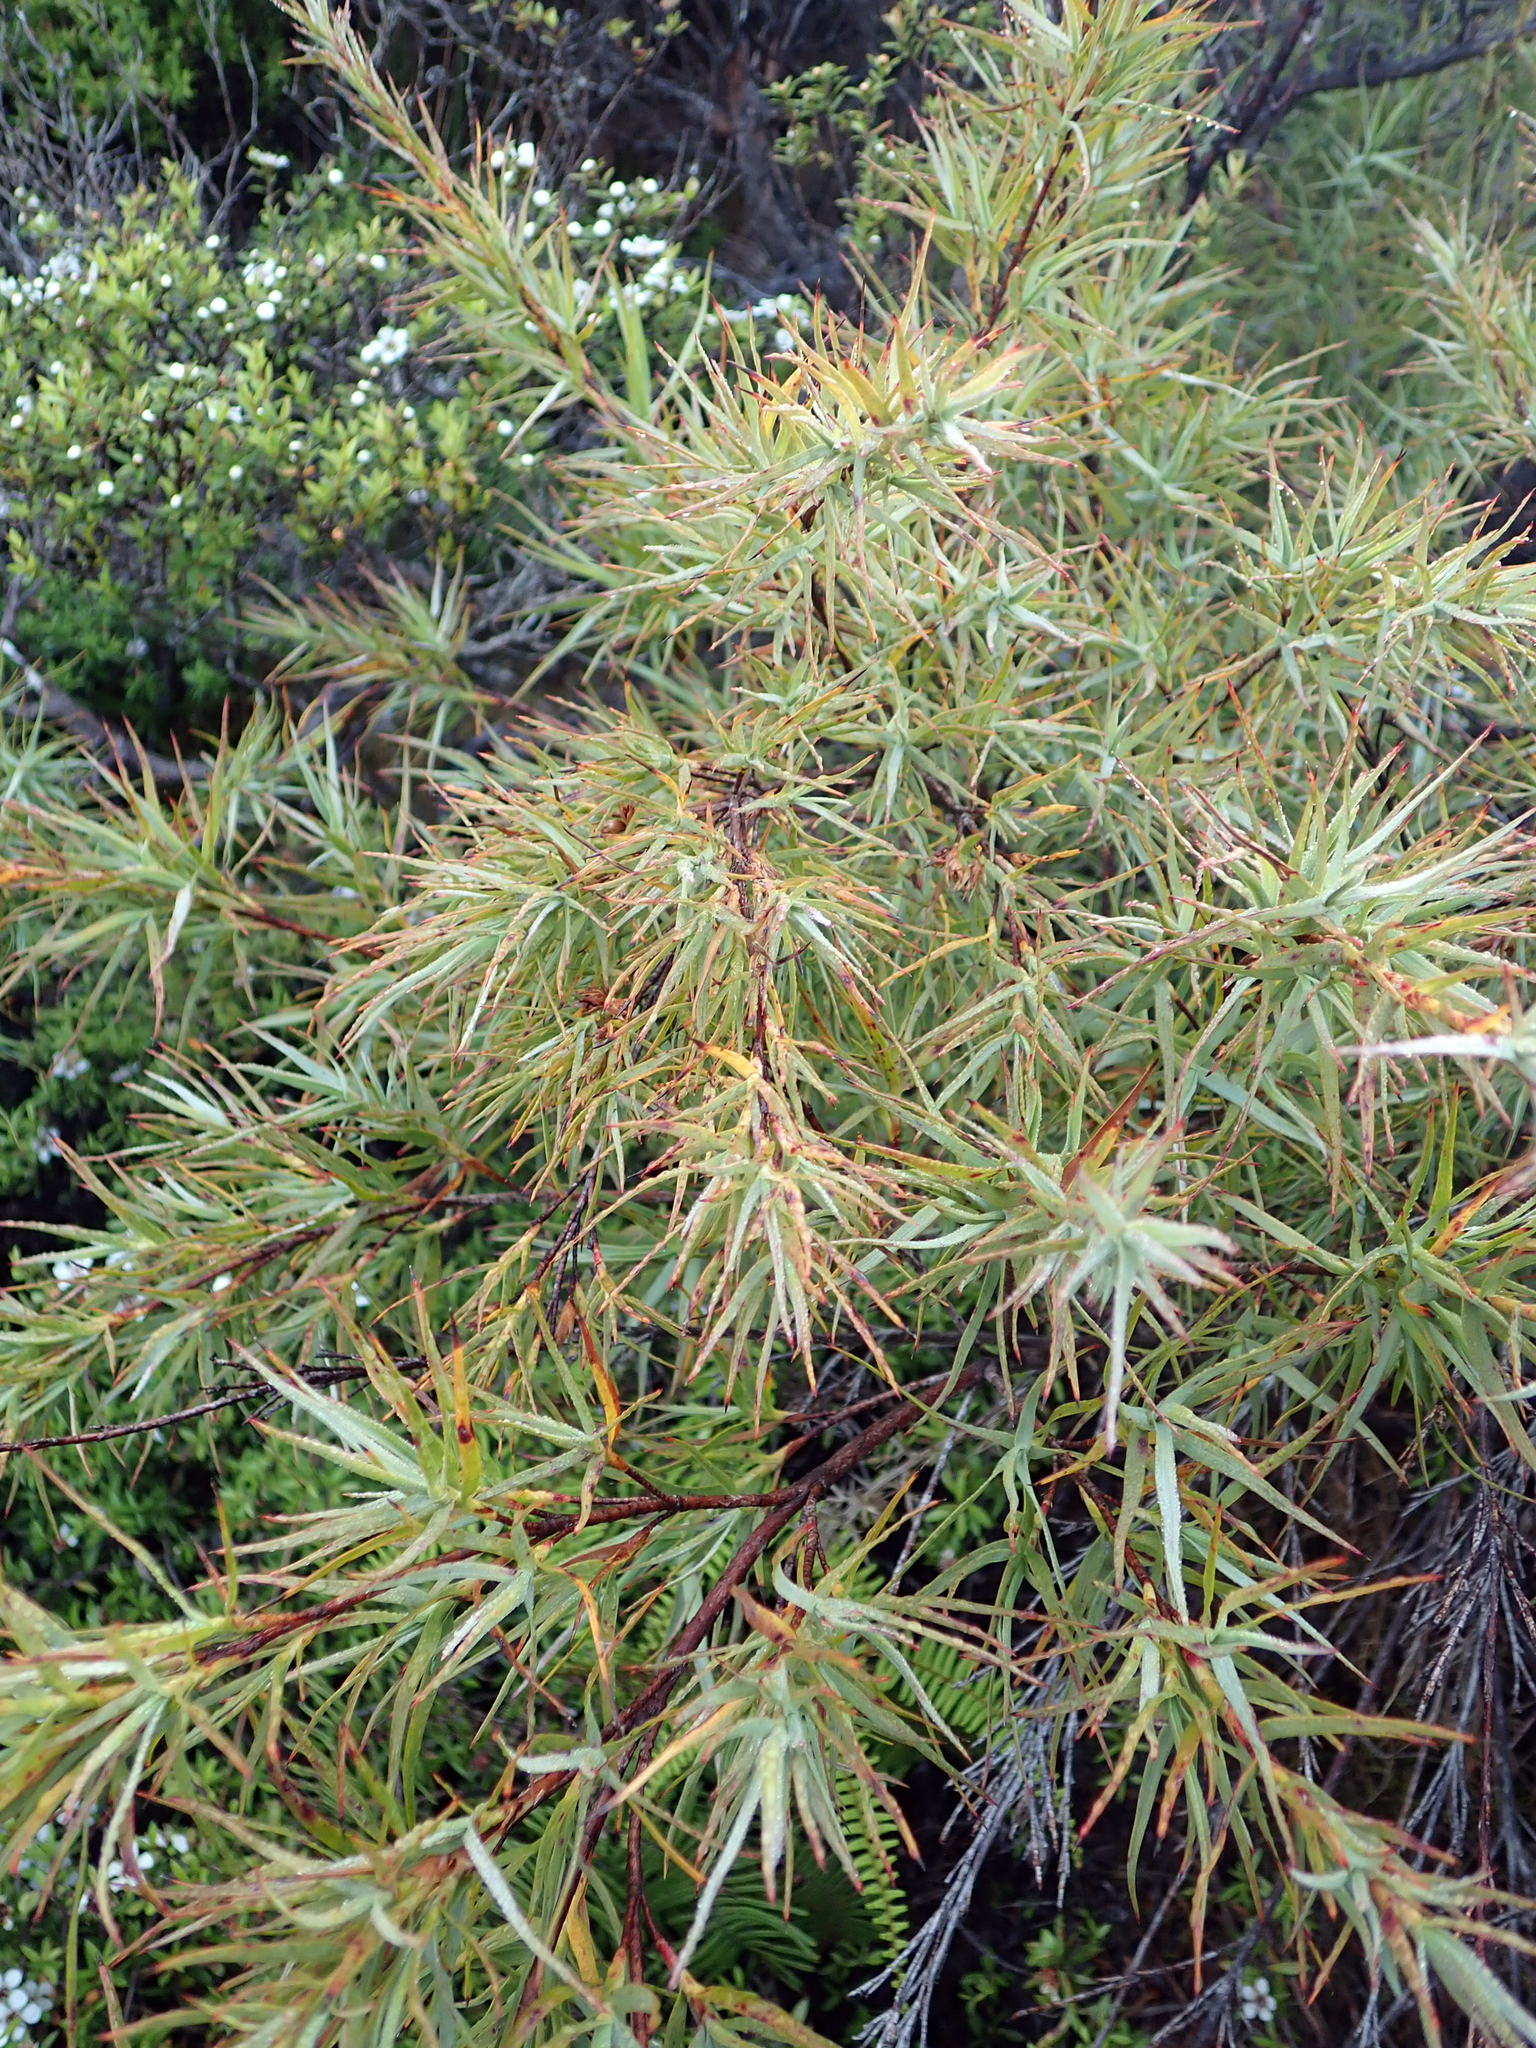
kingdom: Plantae
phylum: Tracheophyta
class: Magnoliopsida
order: Ericales
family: Ericaceae
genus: Dracophyllum
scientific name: Dracophyllum trimorphum
